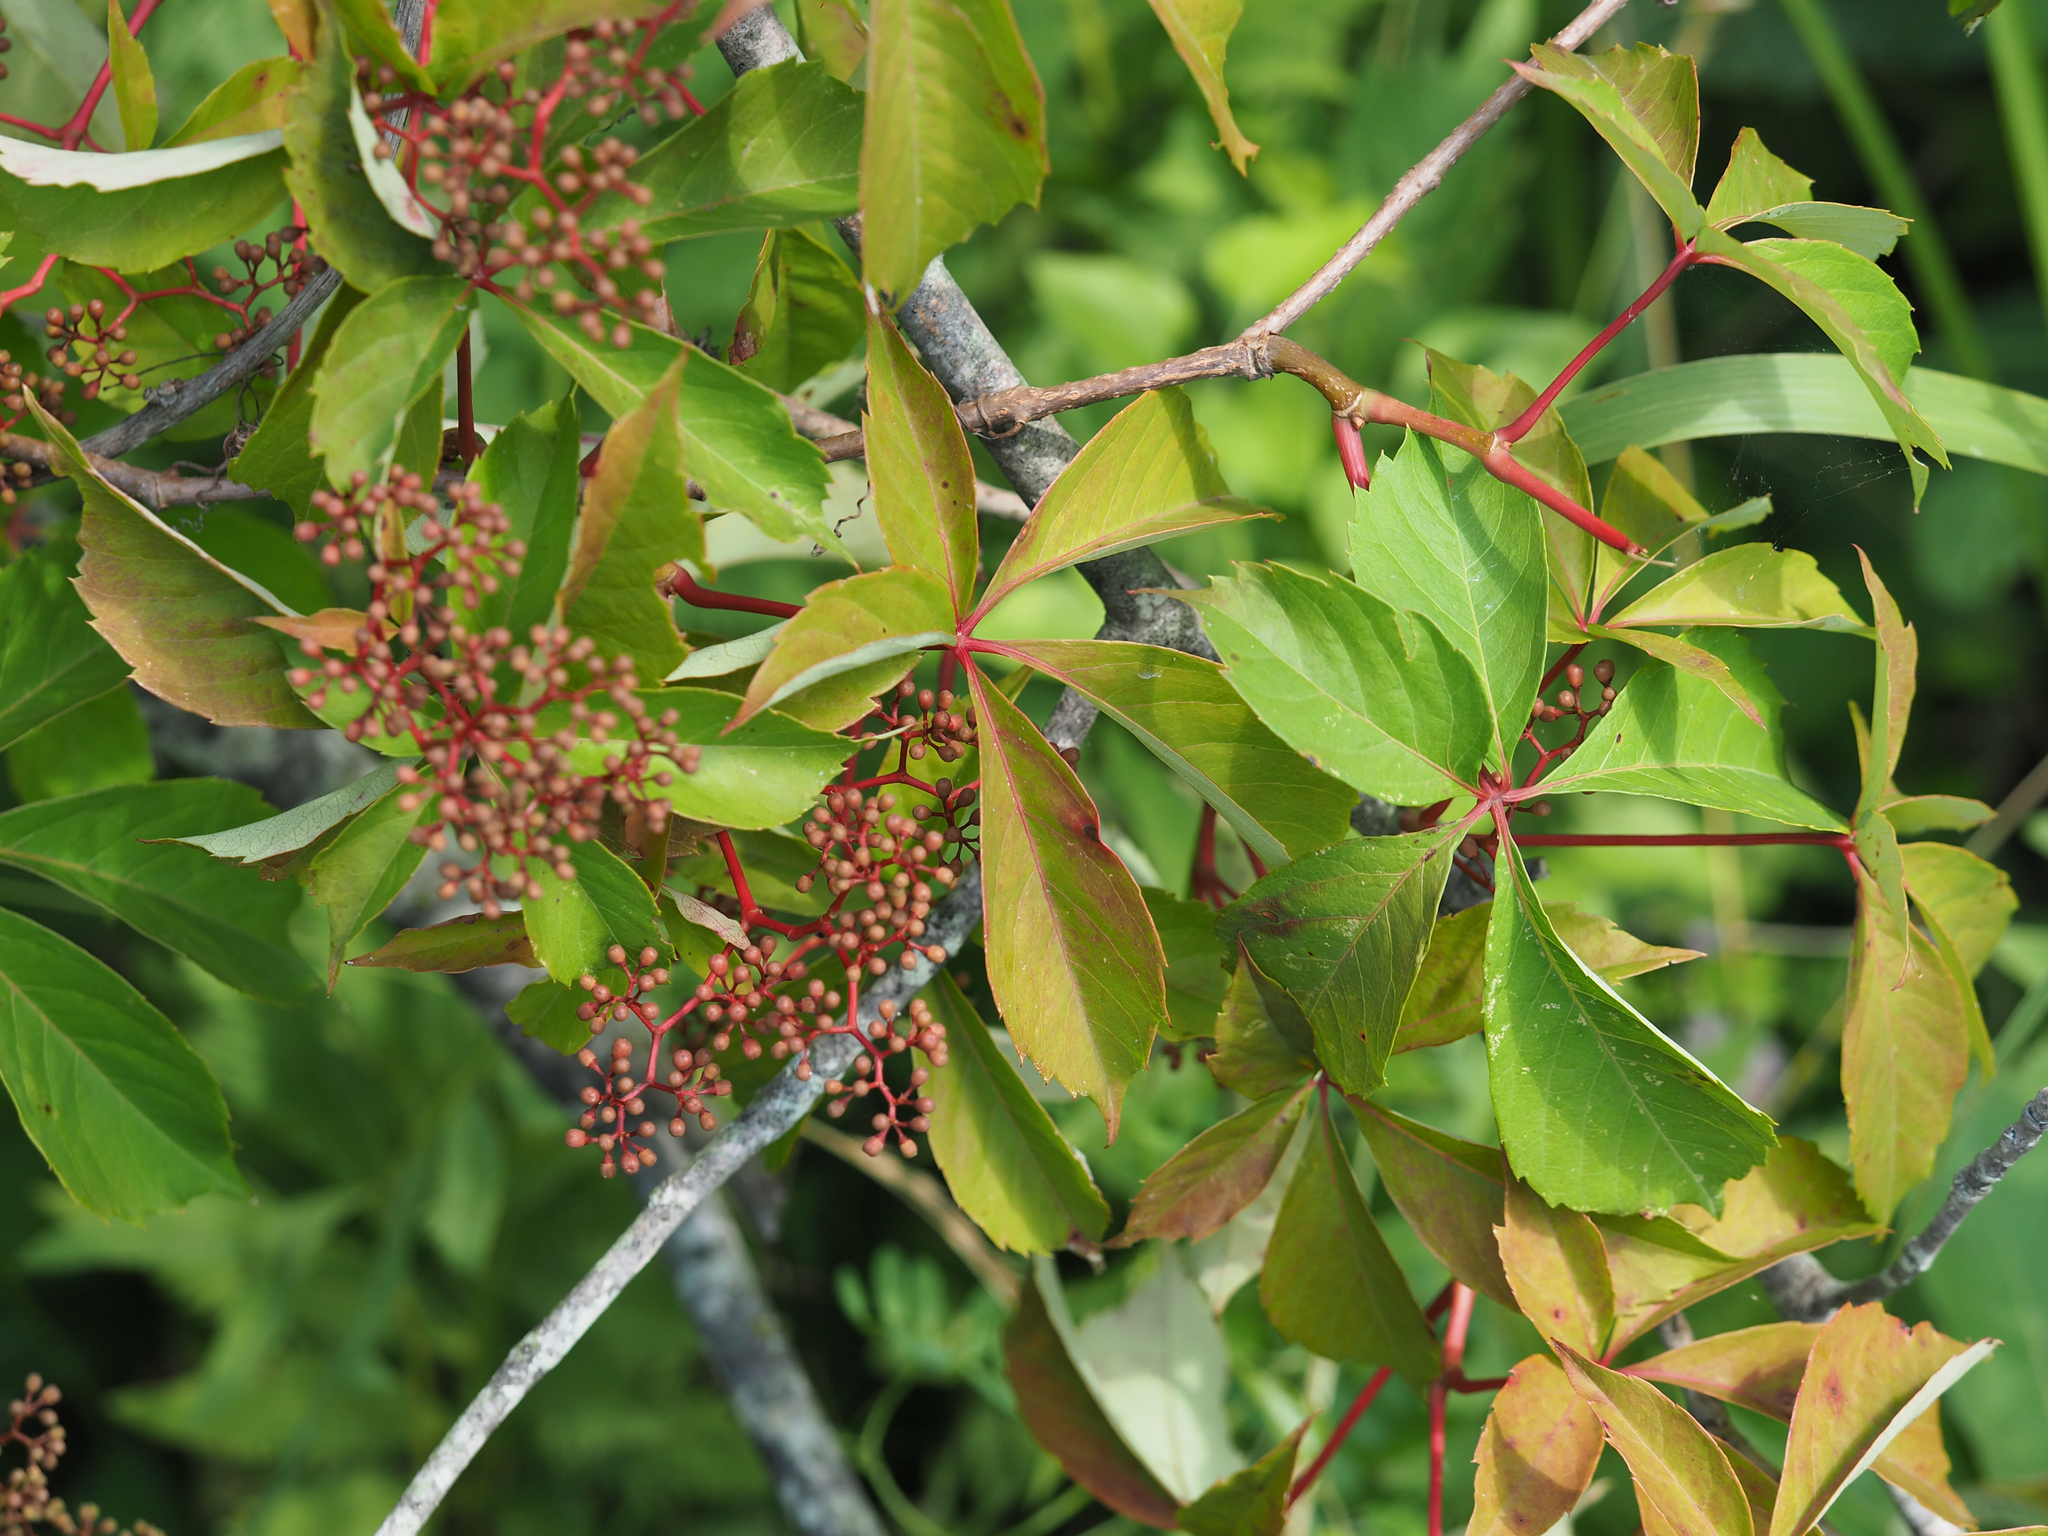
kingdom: Plantae
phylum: Tracheophyta
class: Magnoliopsida
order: Vitales
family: Vitaceae
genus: Parthenocissus
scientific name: Parthenocissus quinquefolia
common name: Virginia-creeper
